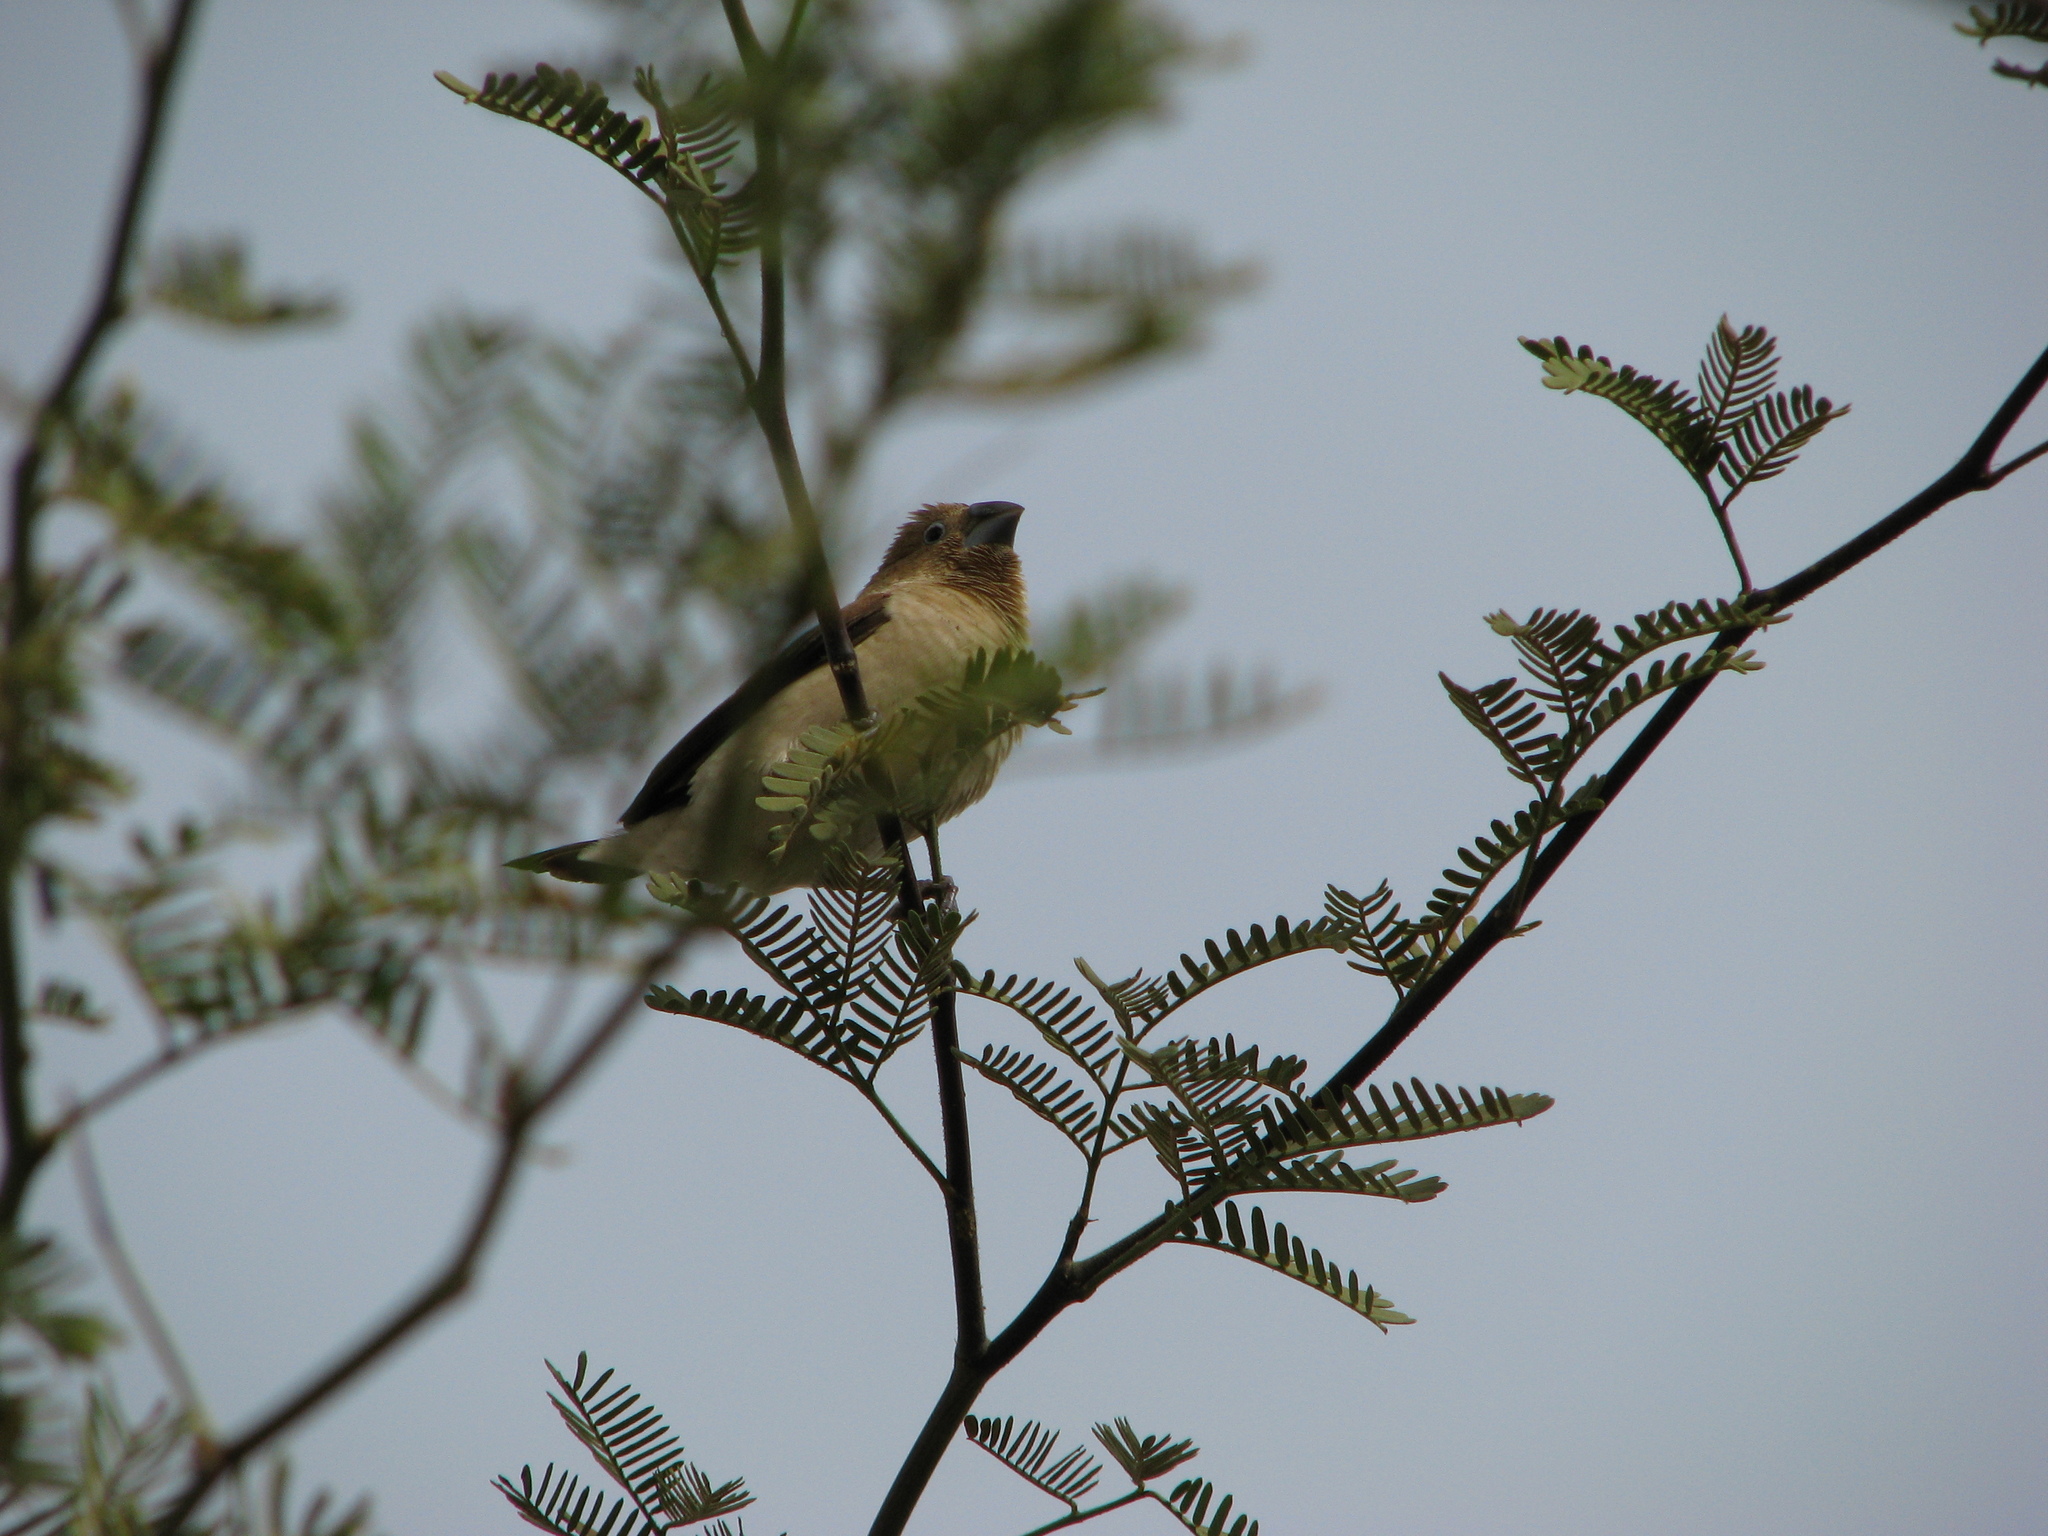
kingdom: Animalia
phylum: Chordata
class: Aves
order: Passeriformes
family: Estrildidae
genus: Euodice
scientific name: Euodice cantans
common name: African silverbill
